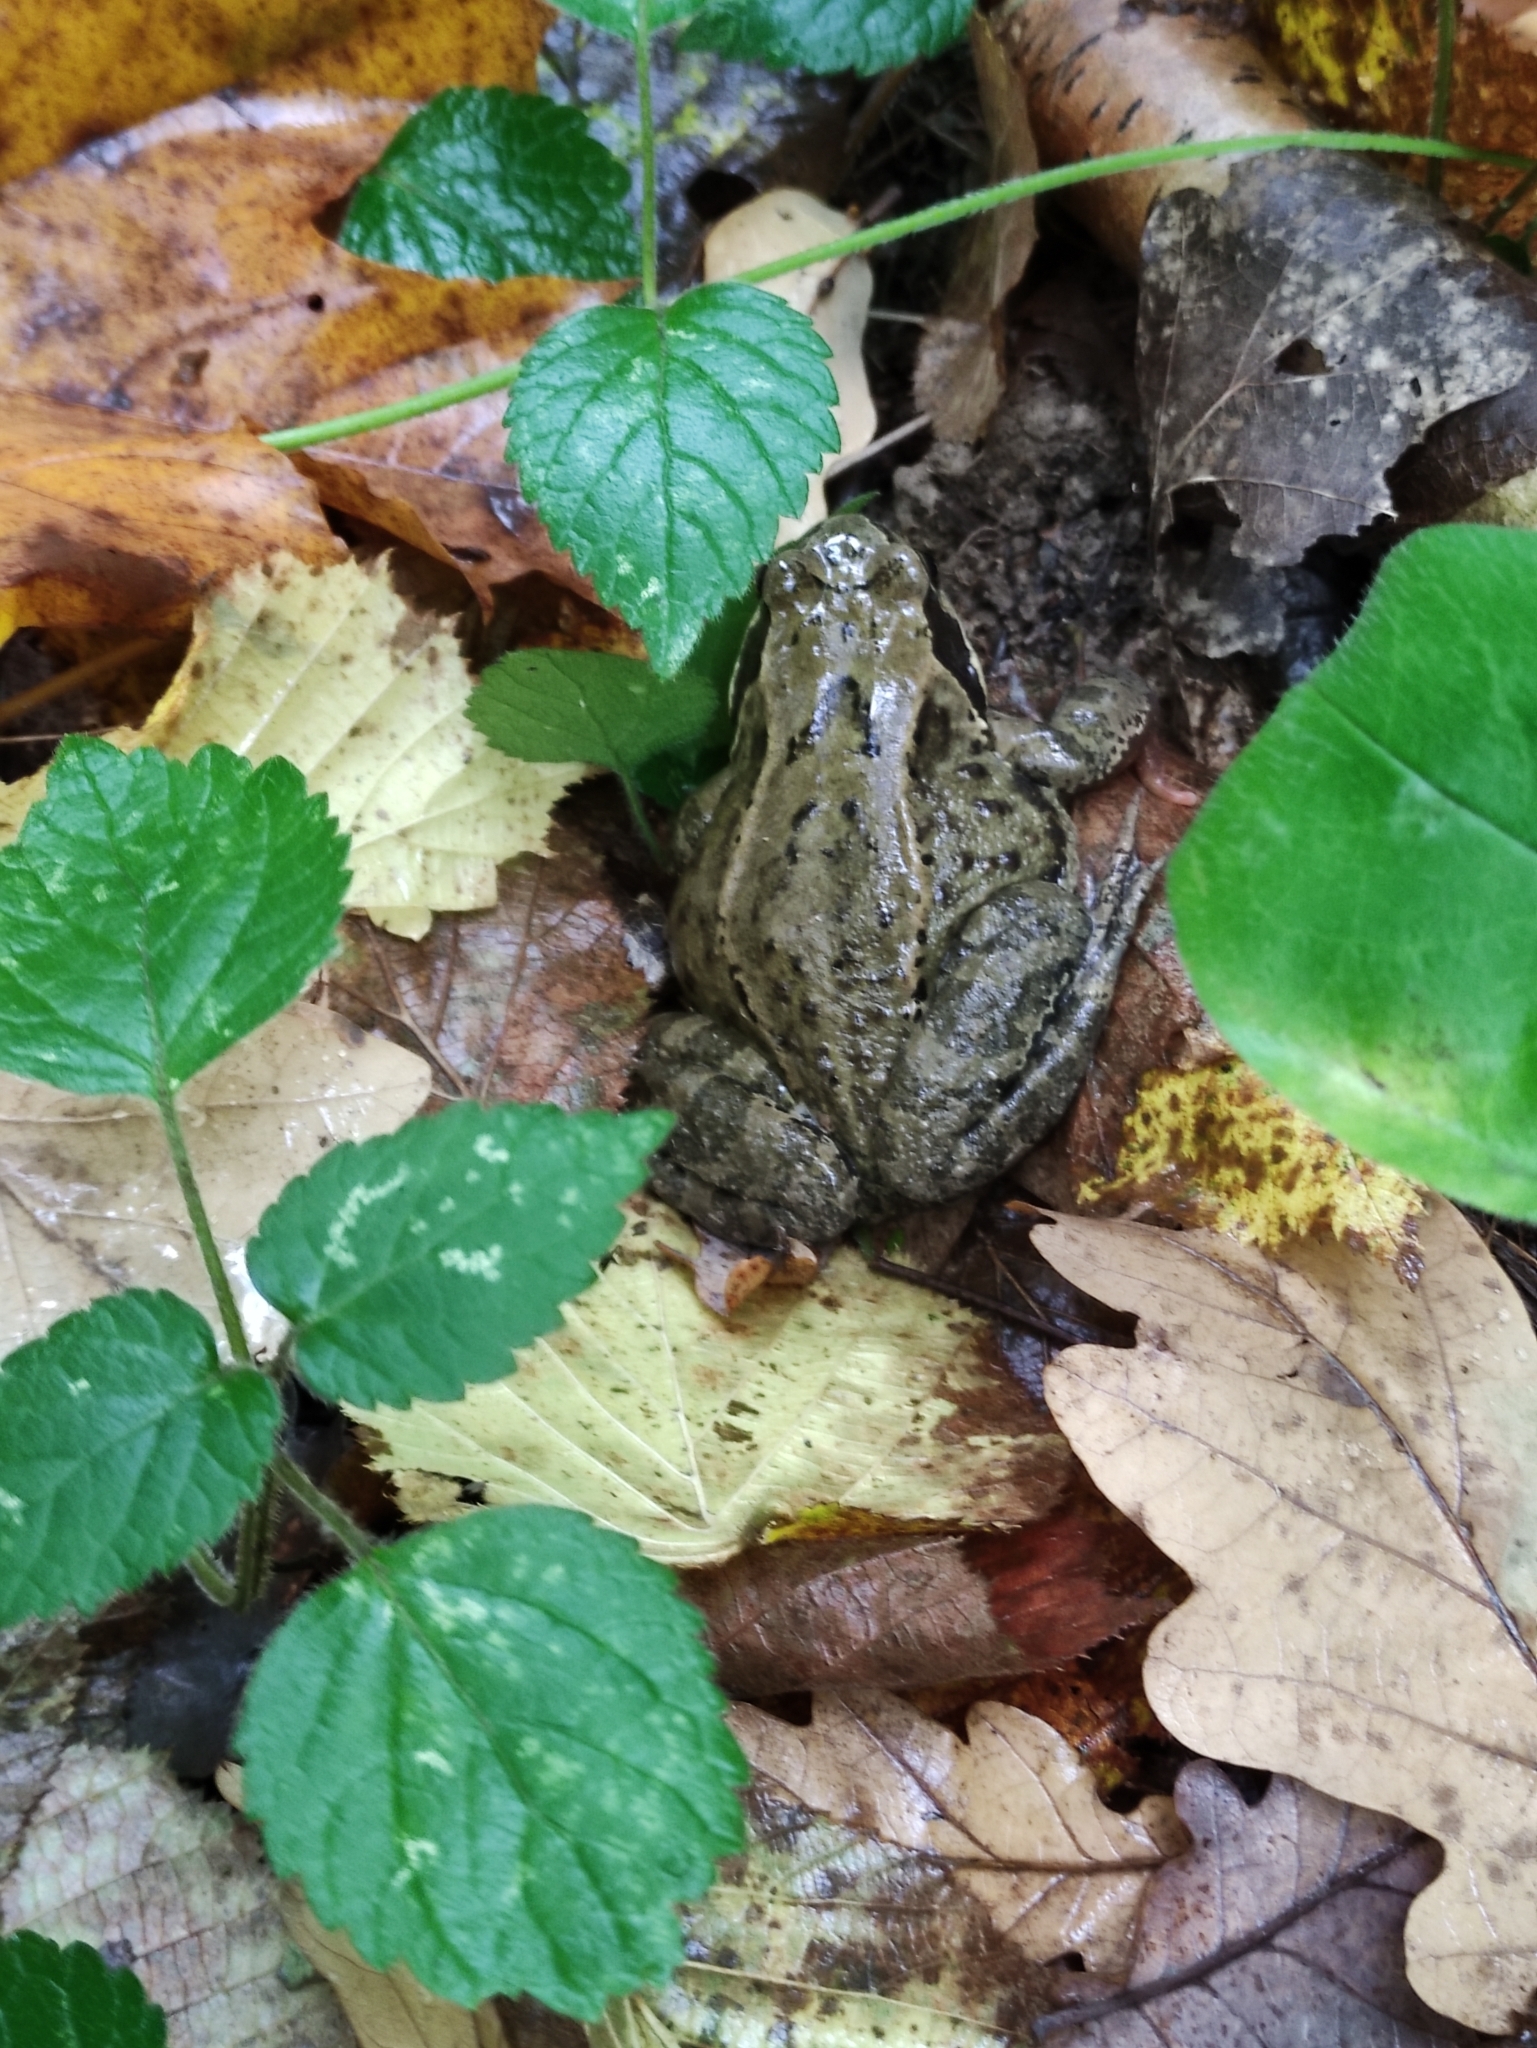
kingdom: Animalia
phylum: Chordata
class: Amphibia
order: Anura
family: Ranidae
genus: Rana
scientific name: Rana temporaria
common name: Common frog
